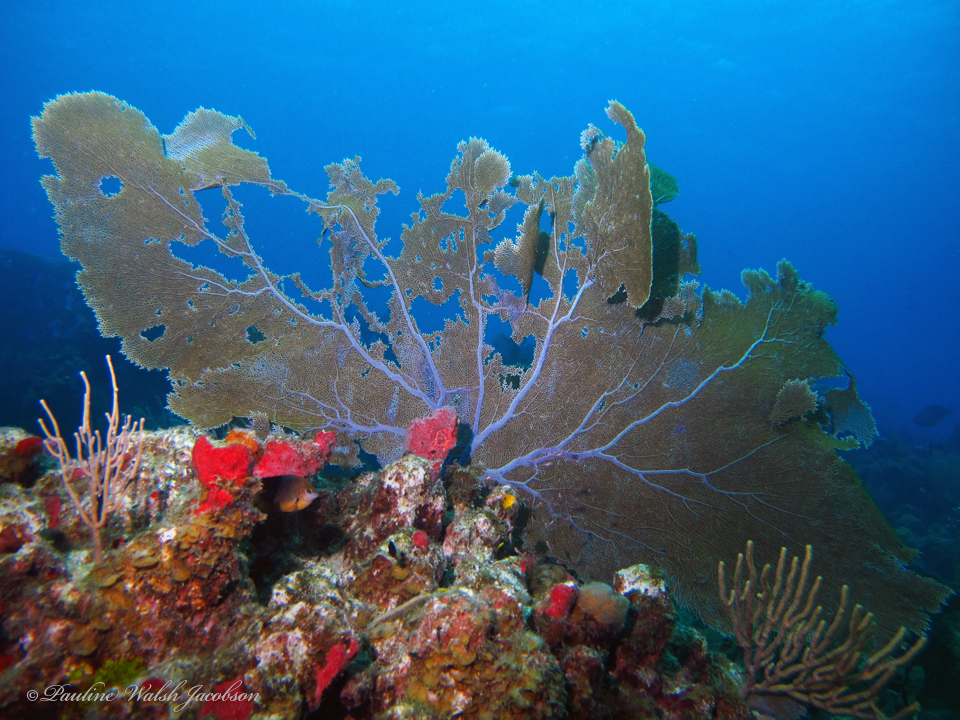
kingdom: Animalia
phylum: Cnidaria
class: Anthozoa
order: Malacalcyonacea
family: Gorgoniidae
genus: Gorgonia
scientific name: Gorgonia ventalina
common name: Common sea fan
